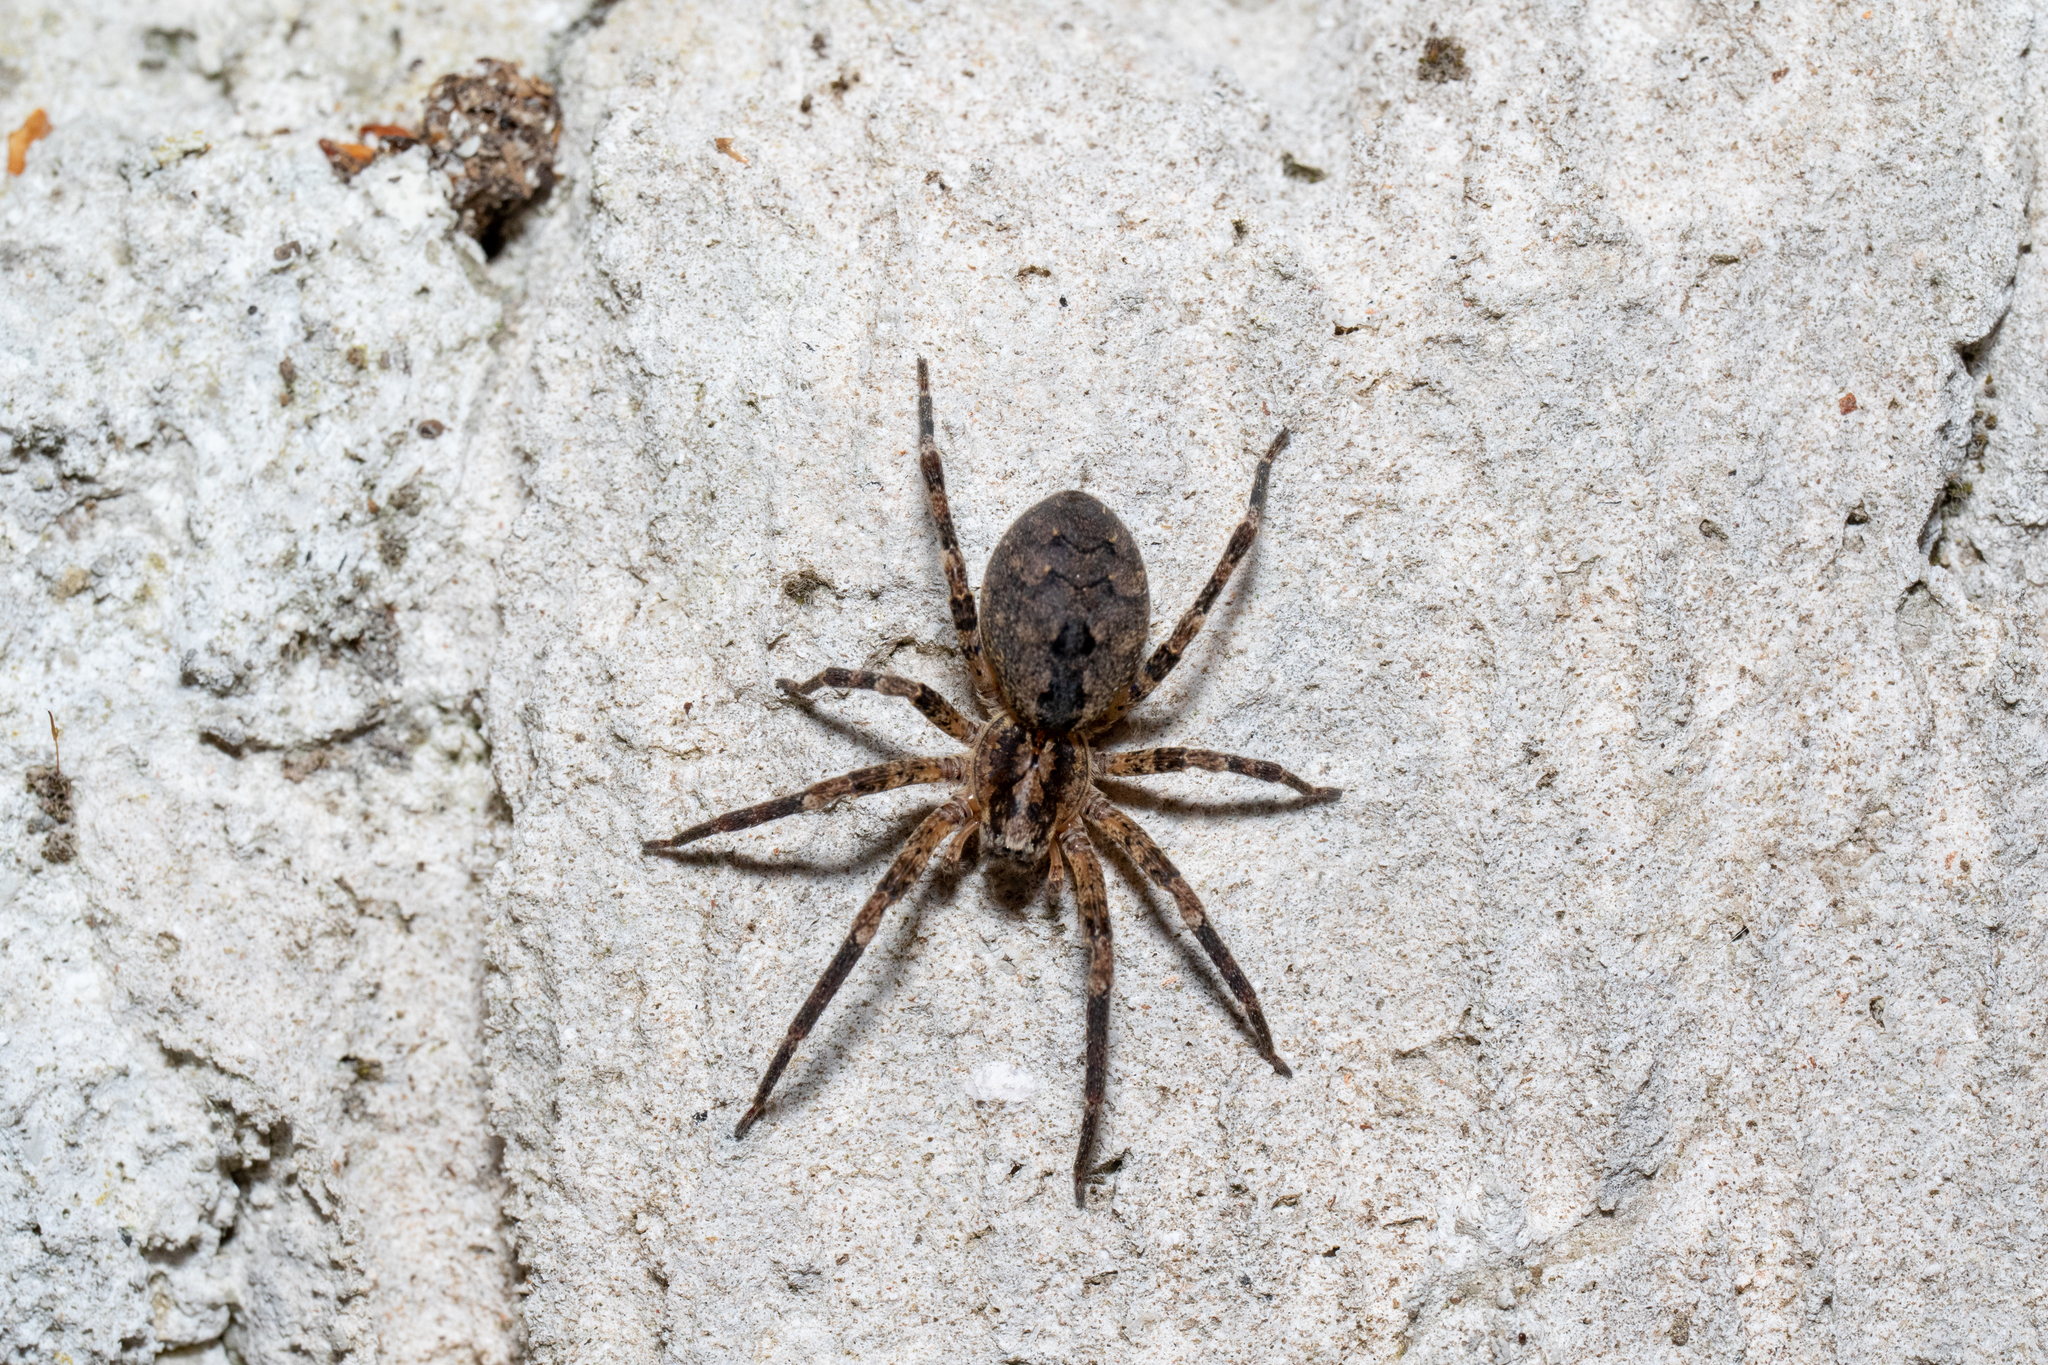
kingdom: Animalia
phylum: Arthropoda
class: Arachnida
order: Araneae
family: Zoropsidae
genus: Zoropsis
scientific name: Zoropsis spinimana
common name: Zoropsid spider
